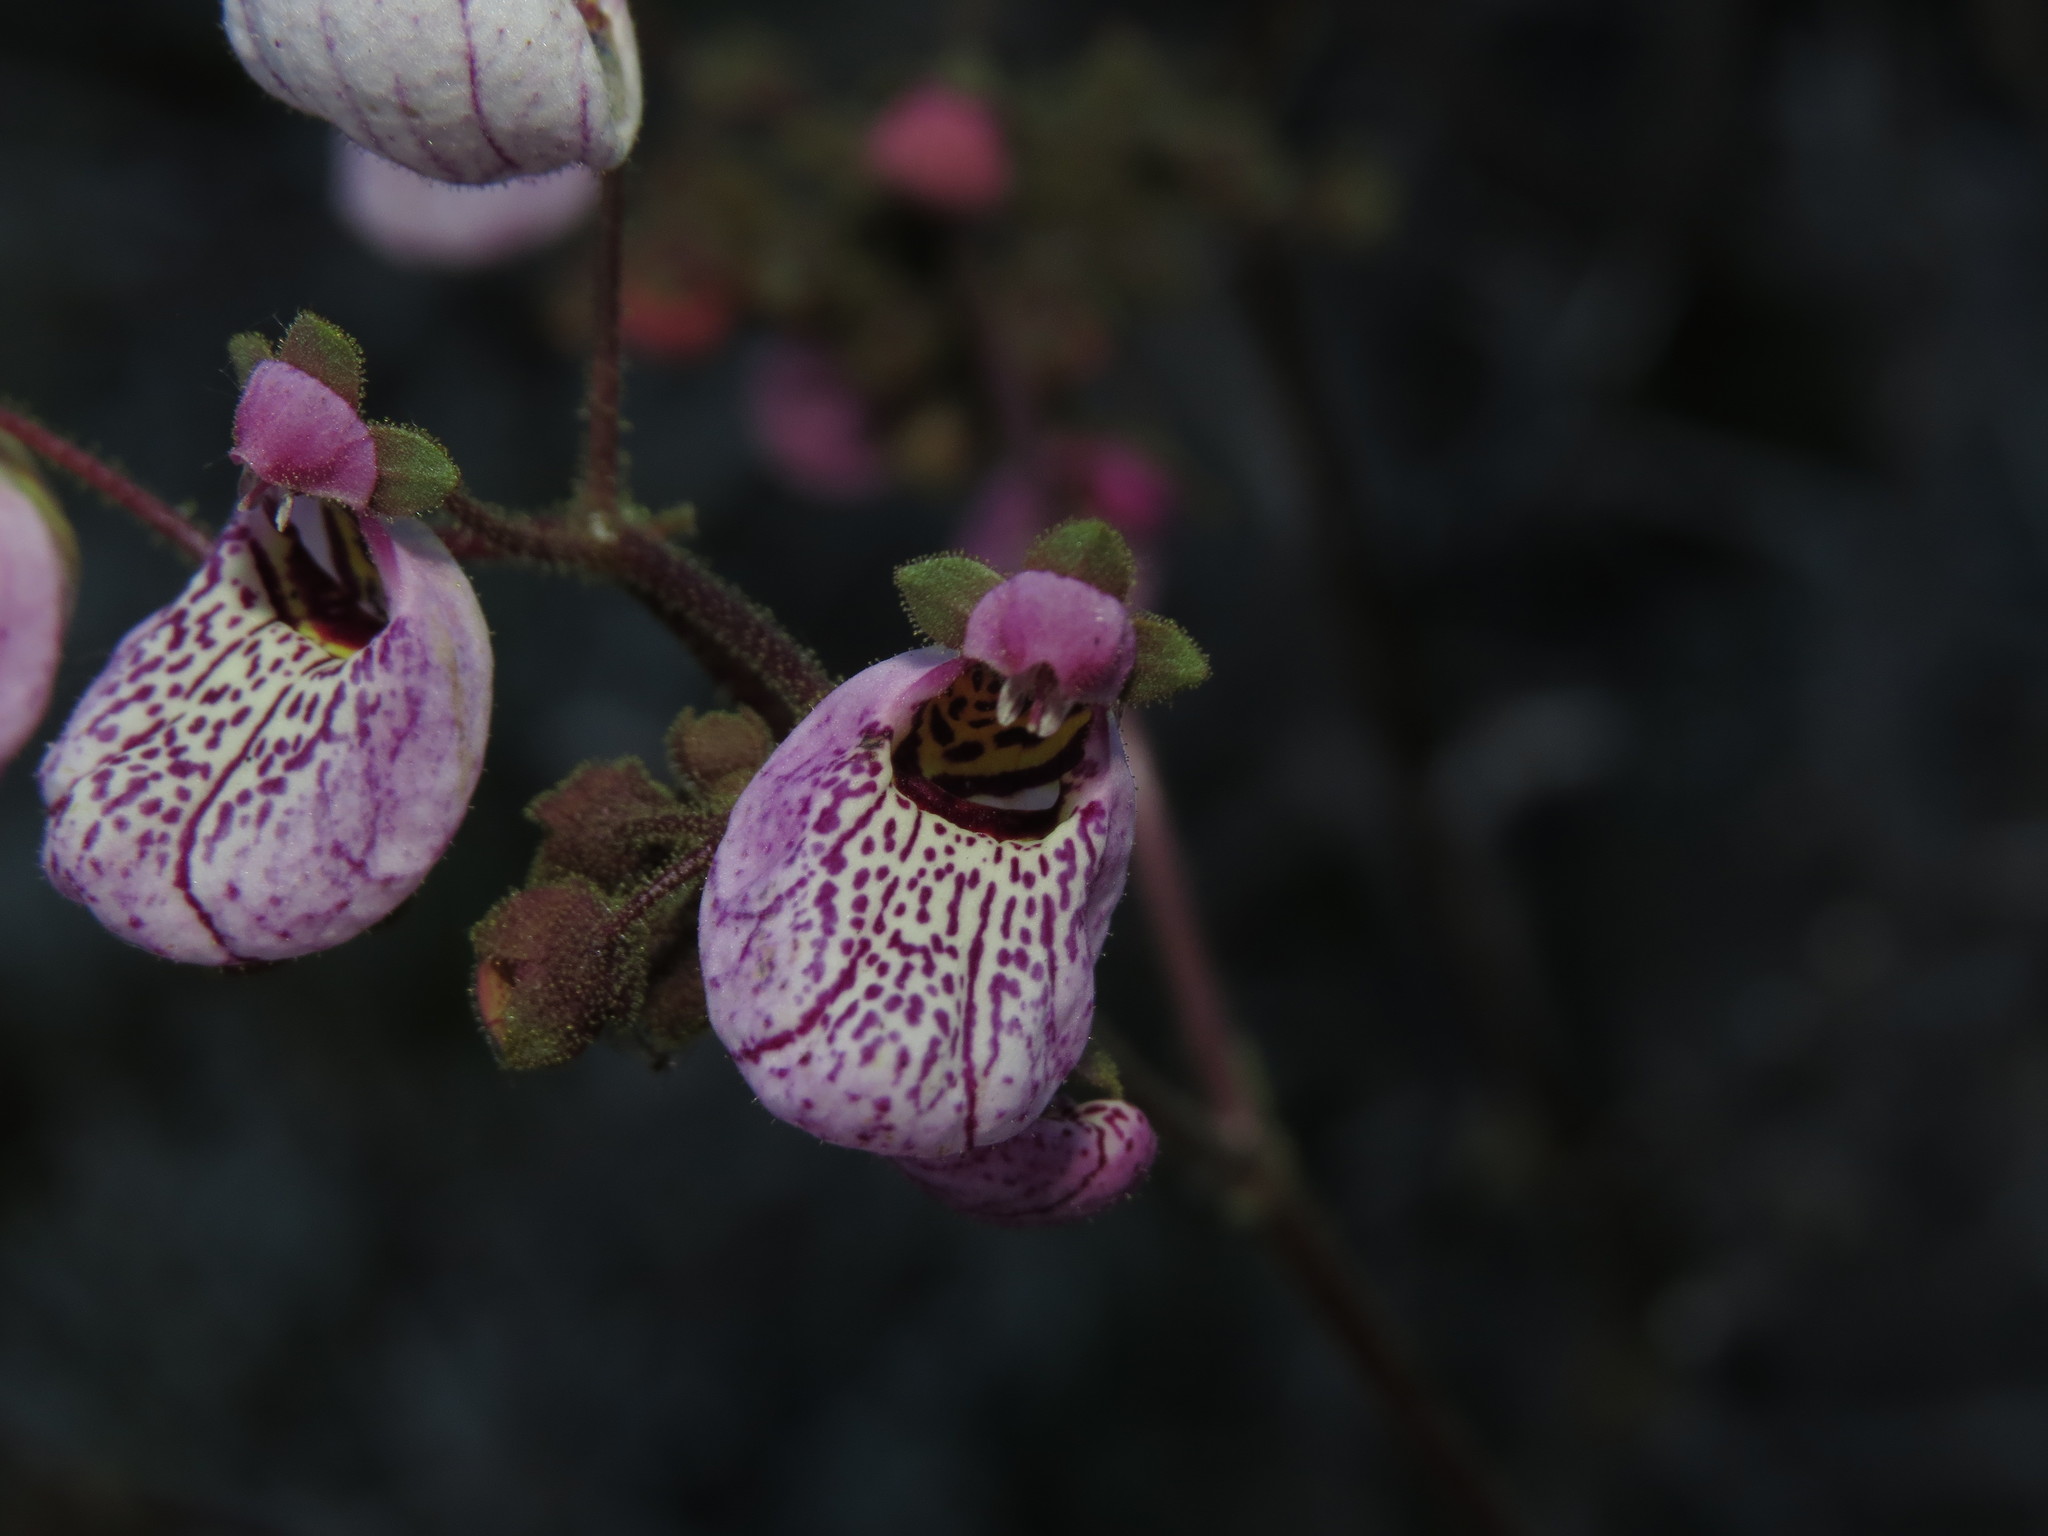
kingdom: Plantae
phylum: Tracheophyta
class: Magnoliopsida
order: Lamiales
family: Calceolariaceae
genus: Calceolaria
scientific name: Calceolaria cana
